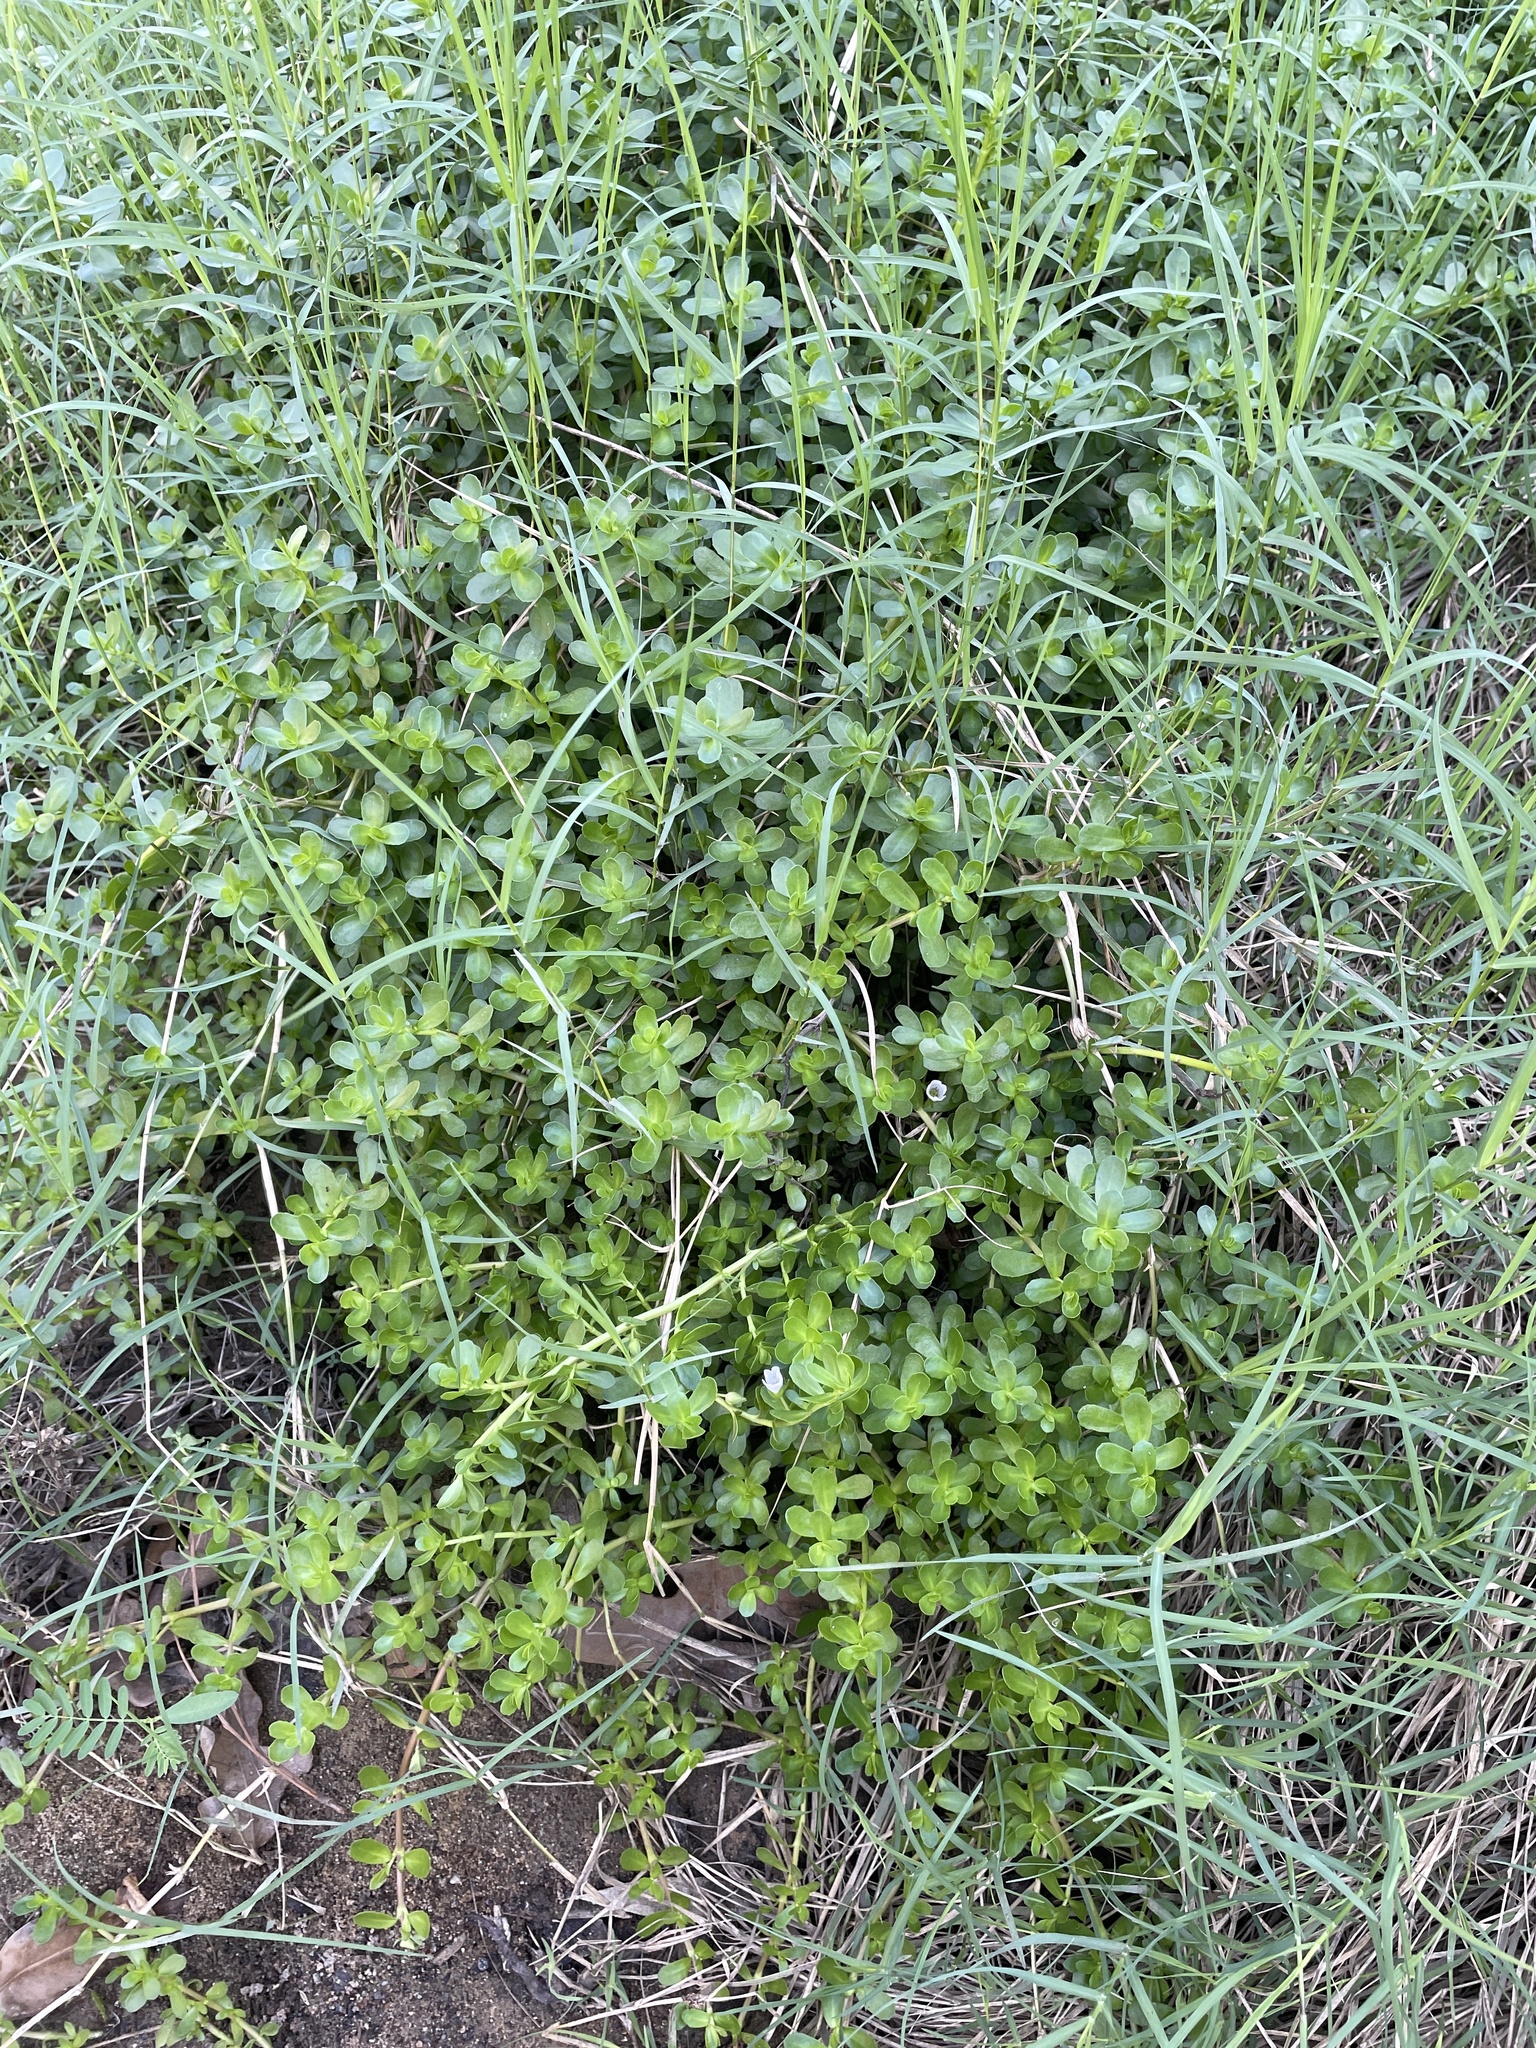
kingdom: Plantae
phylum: Tracheophyta
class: Magnoliopsida
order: Lamiales
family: Plantaginaceae
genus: Bacopa
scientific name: Bacopa monnieri
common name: Indian-pennywort
